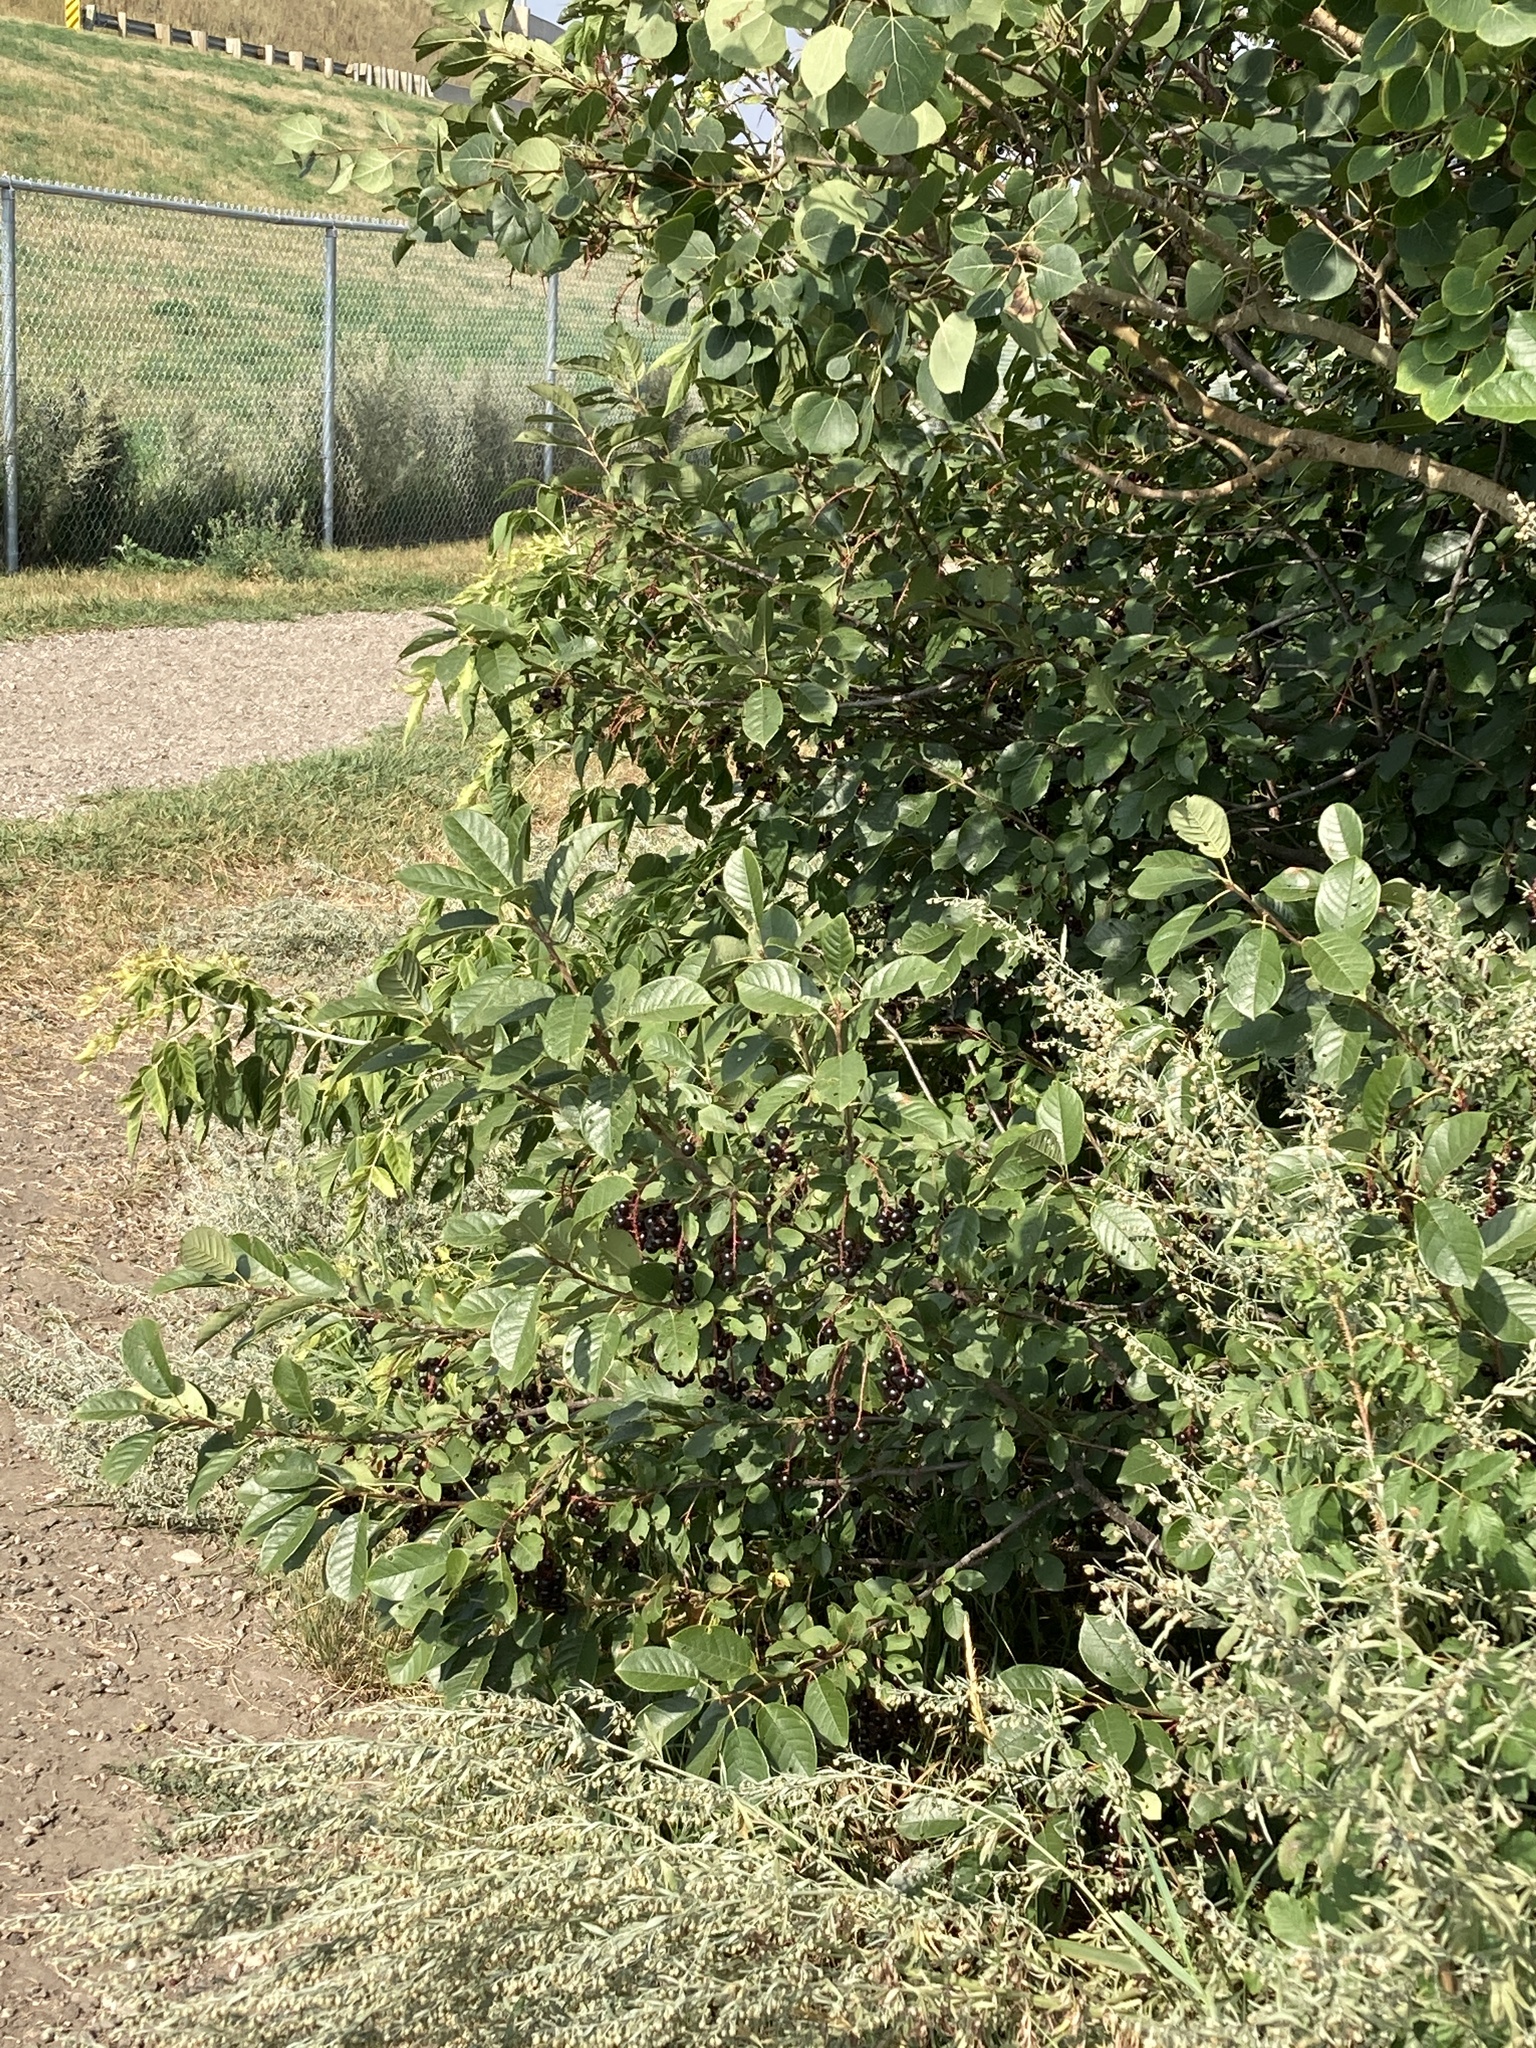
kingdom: Plantae
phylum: Tracheophyta
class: Magnoliopsida
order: Rosales
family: Rosaceae
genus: Prunus
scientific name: Prunus virginiana
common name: Chokecherry
